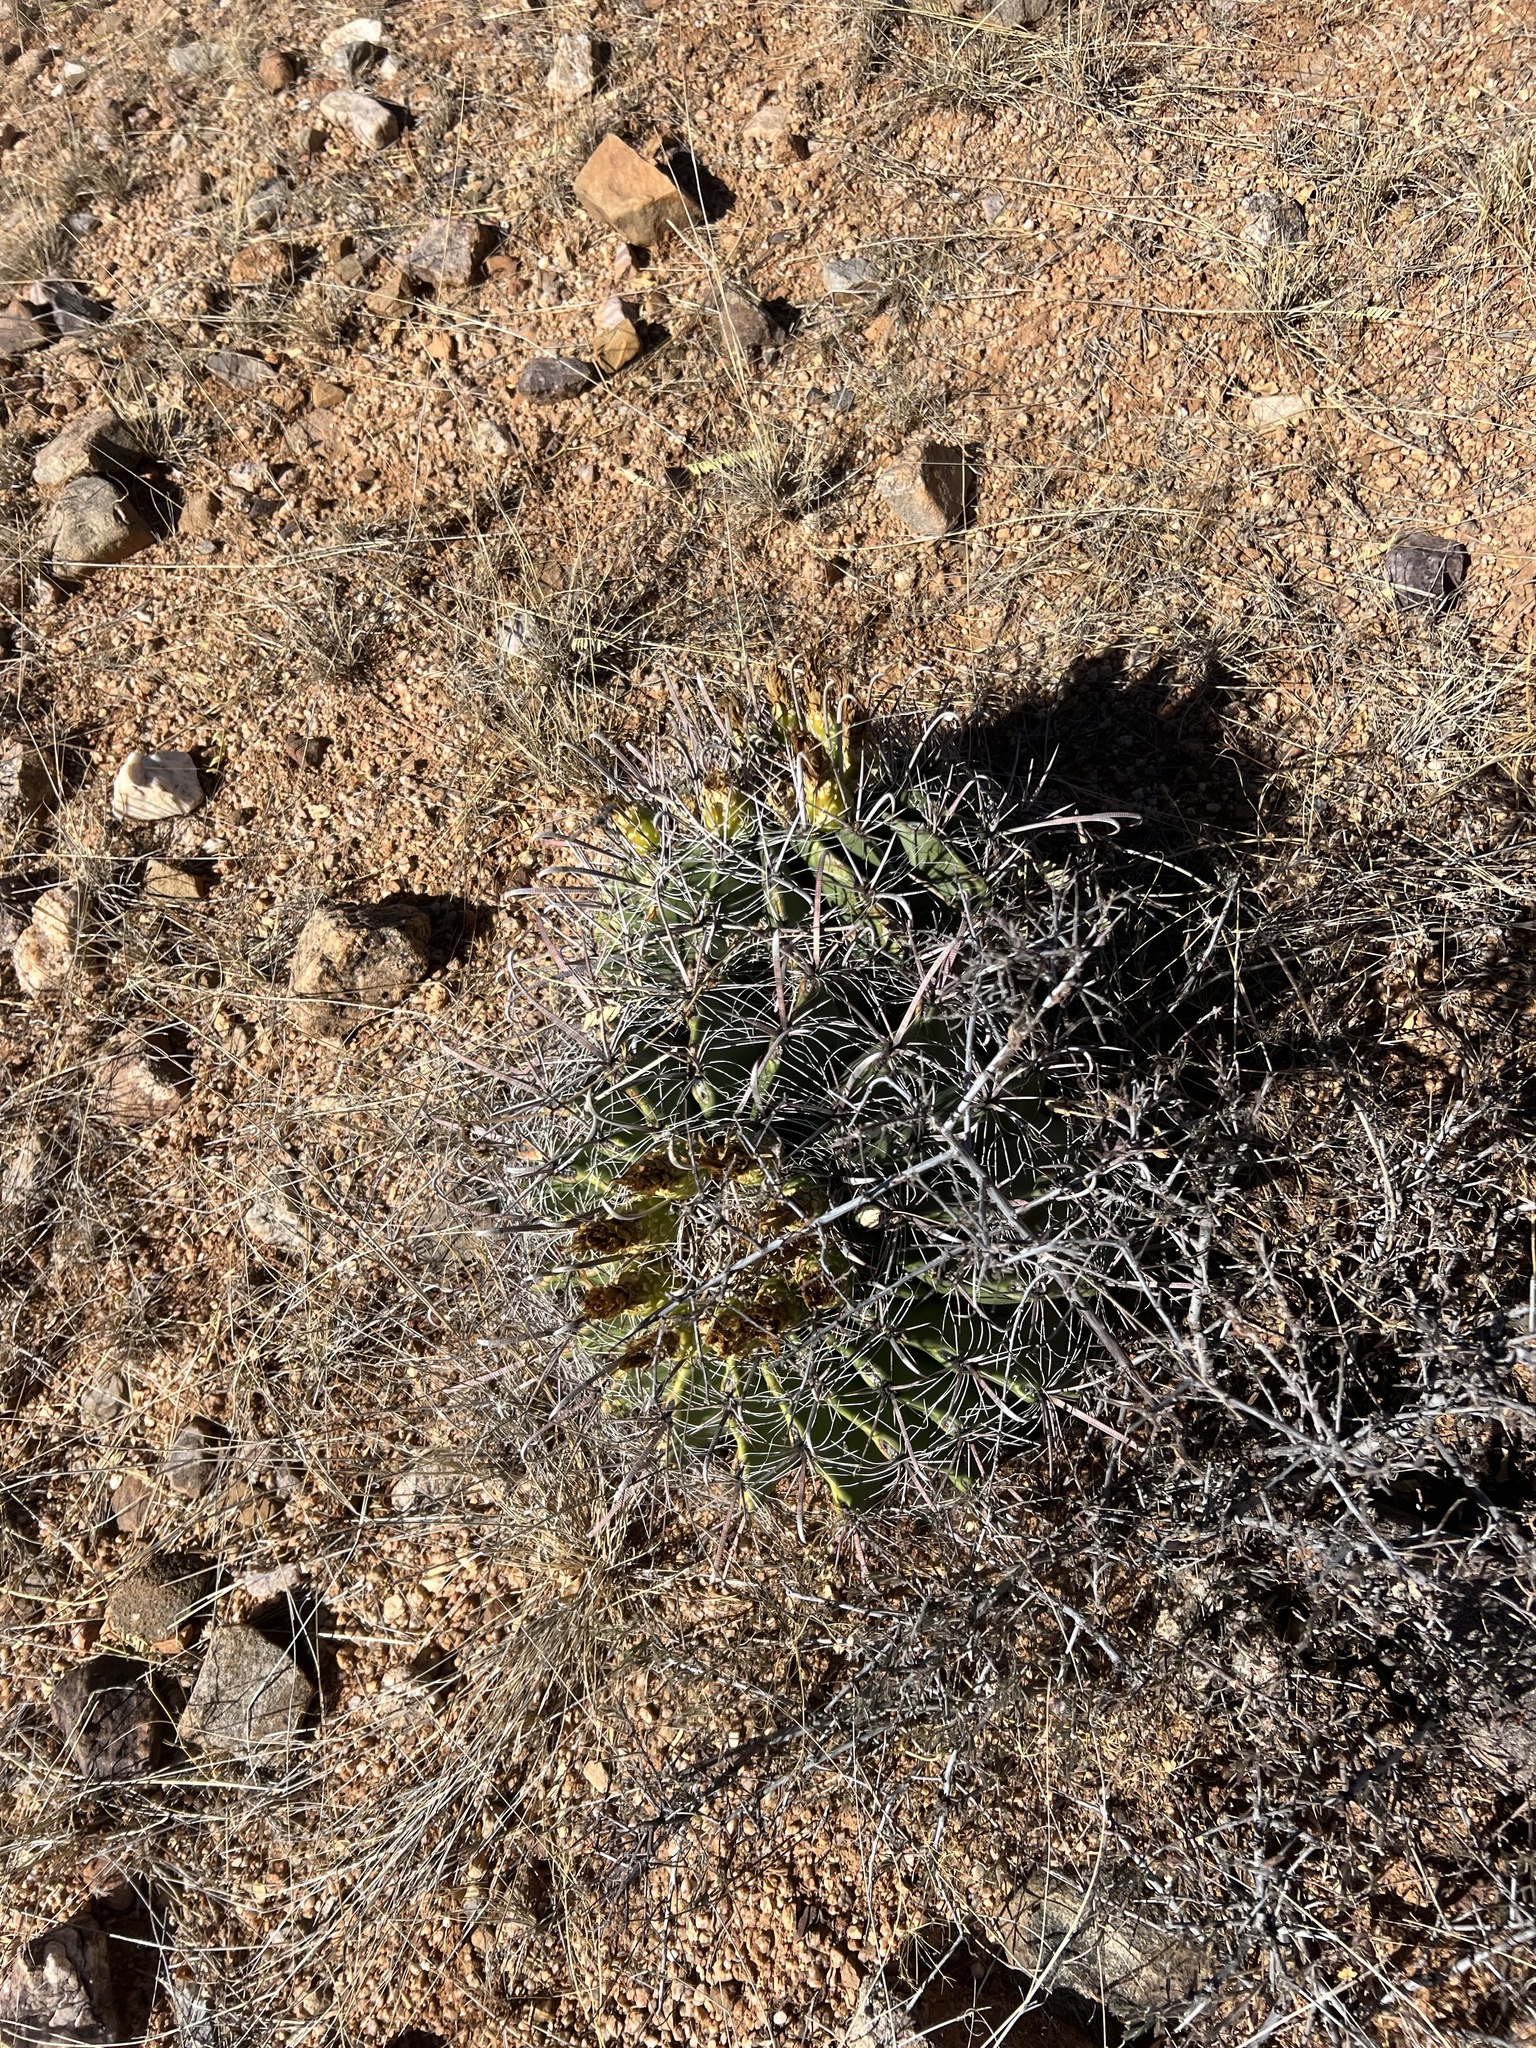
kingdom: Plantae
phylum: Tracheophyta
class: Magnoliopsida
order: Caryophyllales
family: Cactaceae
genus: Ferocactus
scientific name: Ferocactus wislizeni
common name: Candy barrel cactus
